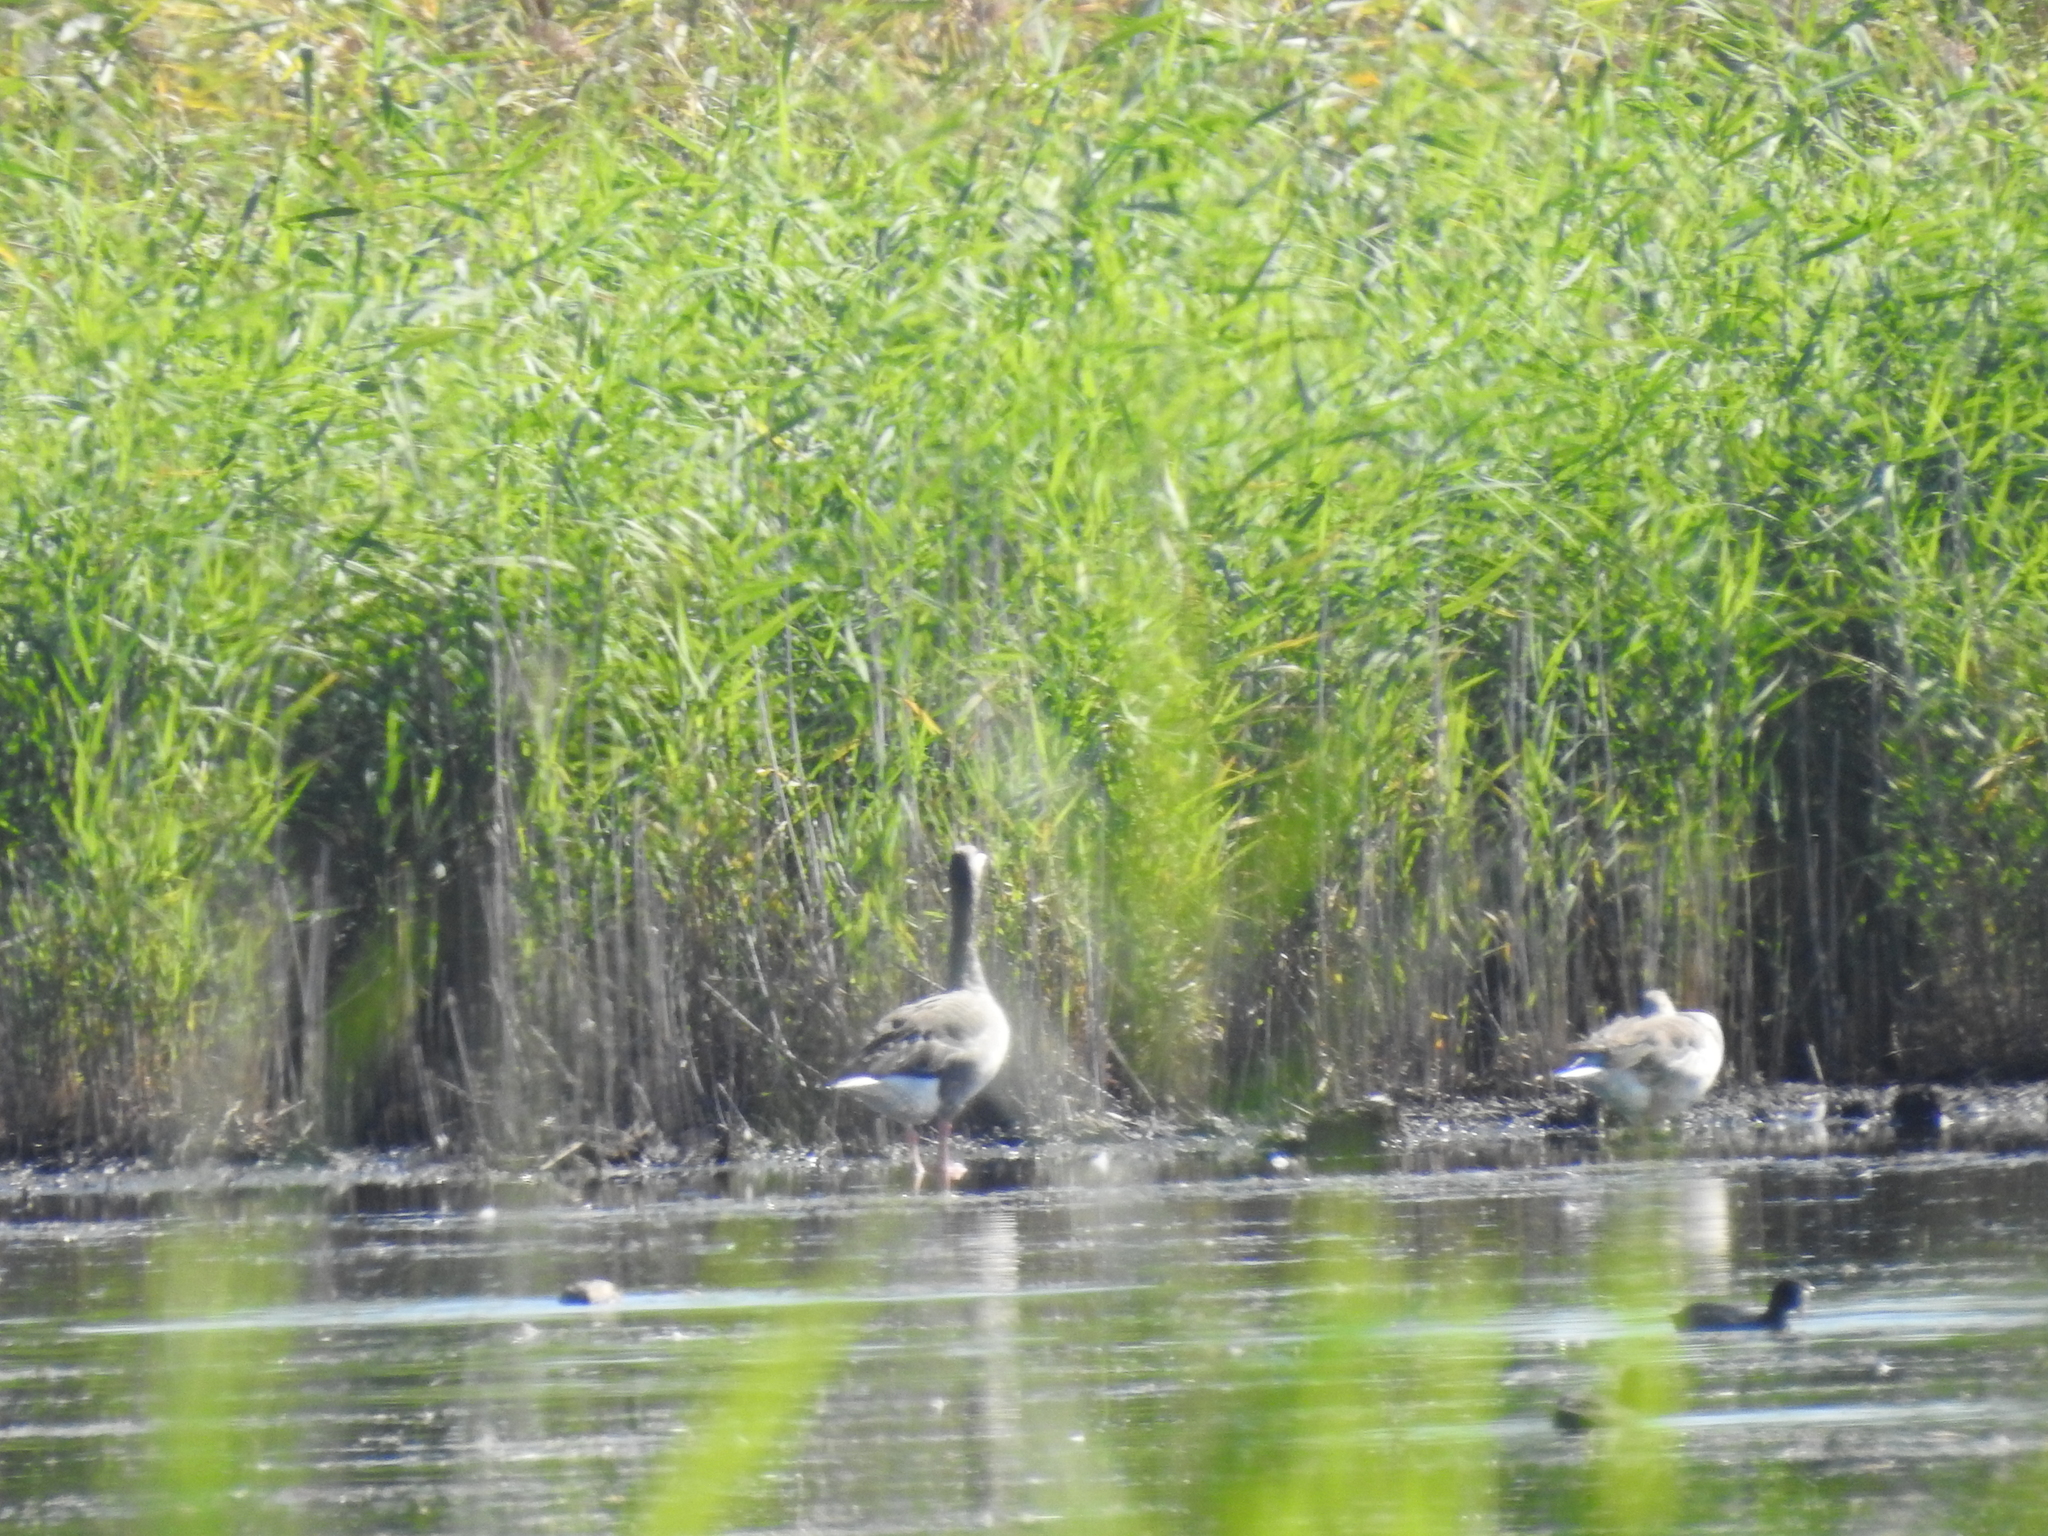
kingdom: Animalia
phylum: Chordata
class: Aves
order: Anseriformes
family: Anatidae
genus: Anser
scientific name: Anser anser
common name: Greylag goose
